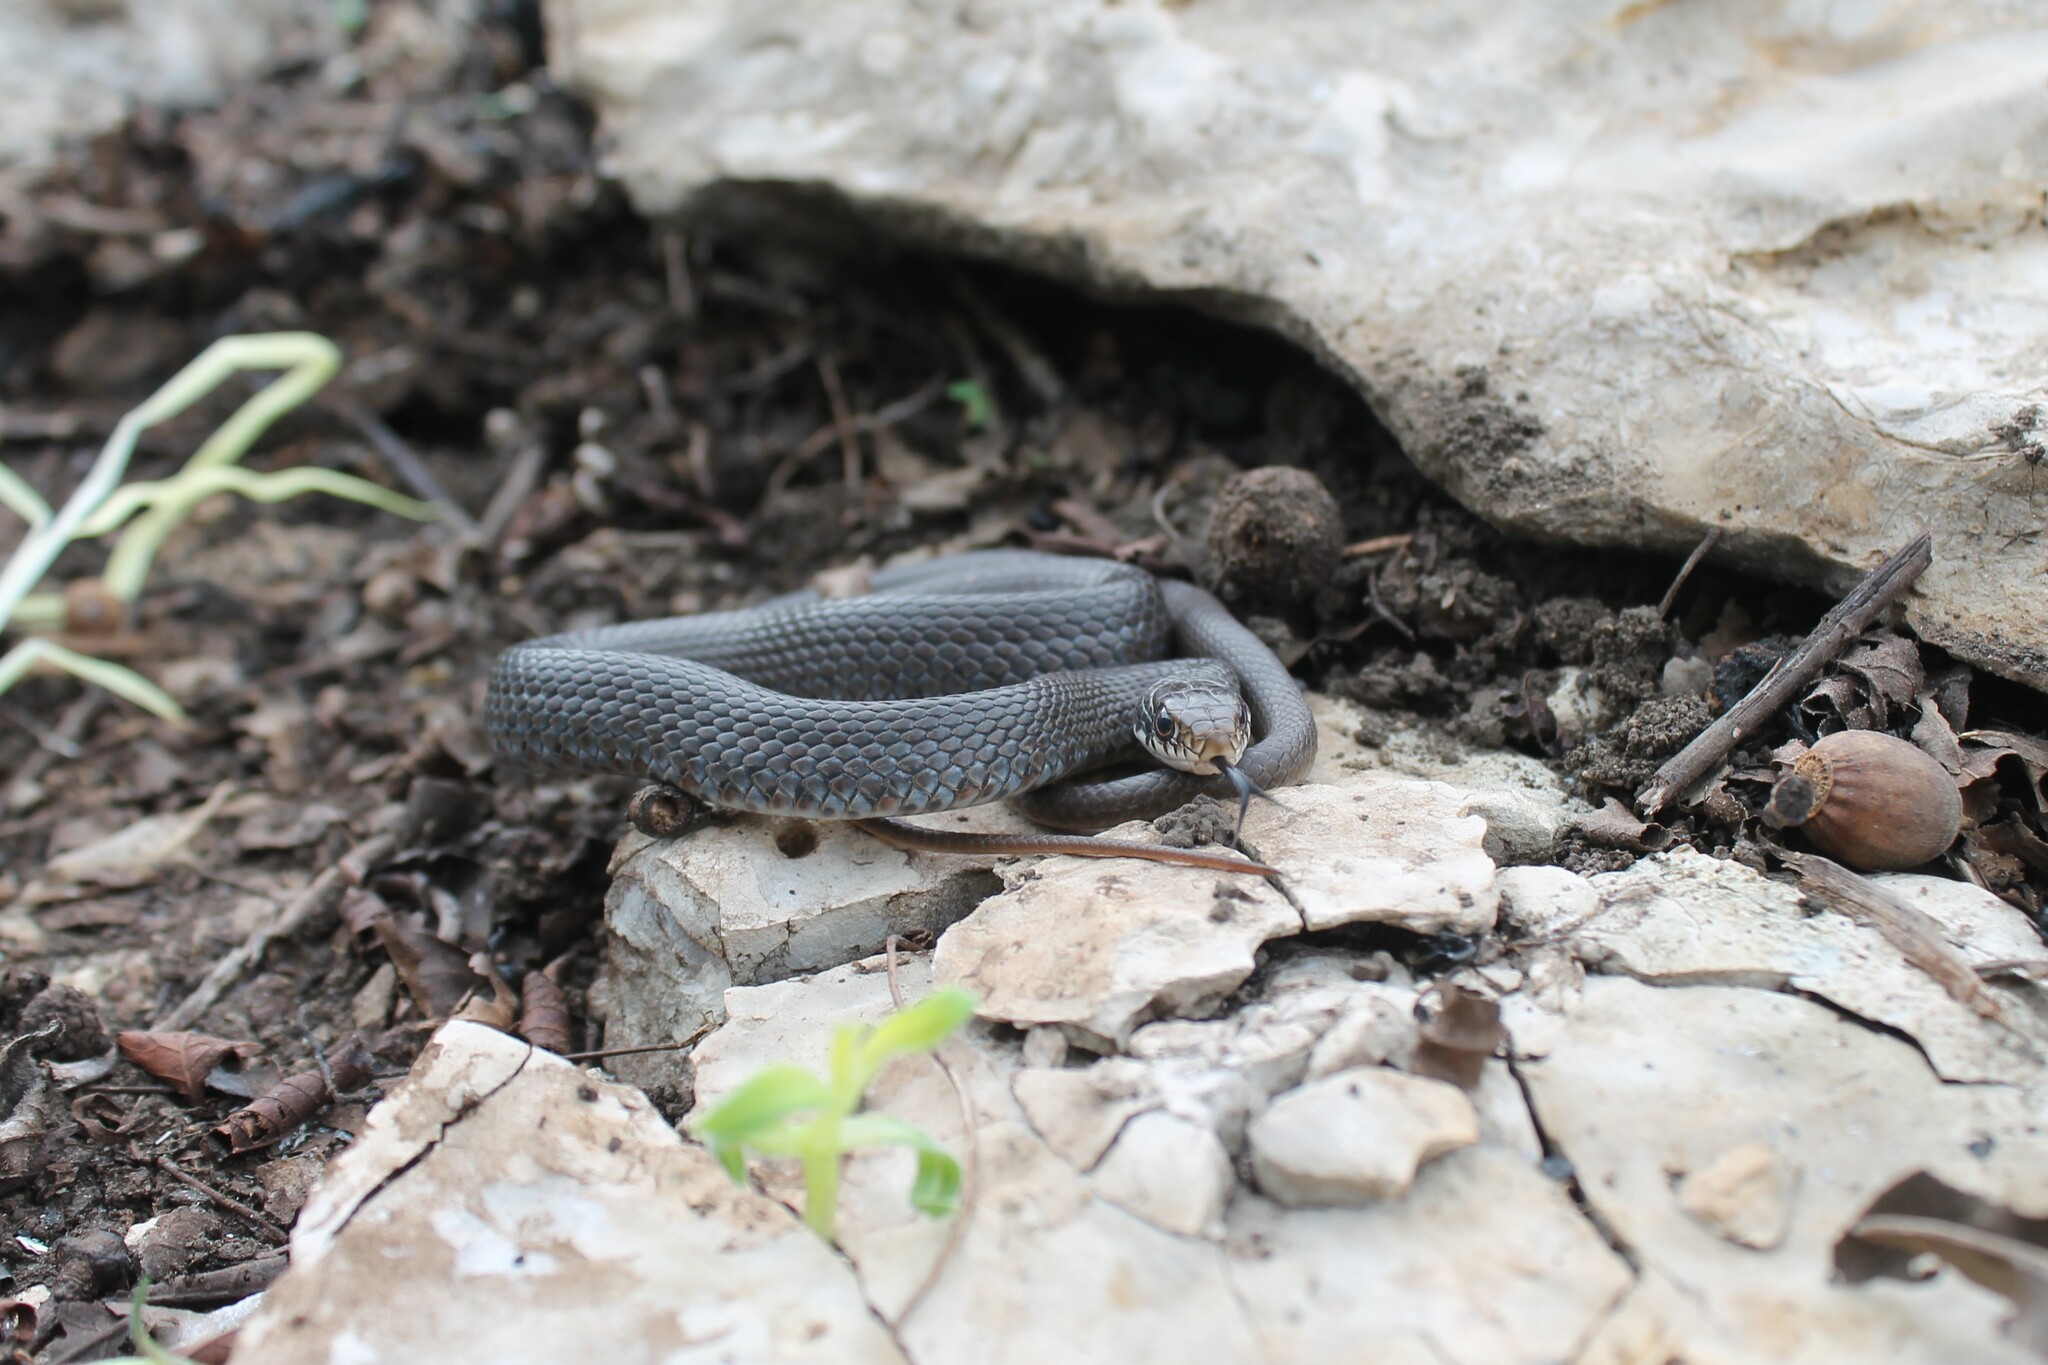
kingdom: Animalia
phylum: Chordata
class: Squamata
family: Colubridae
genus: Coluber
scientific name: Coluber constrictor
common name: Eastern racer
